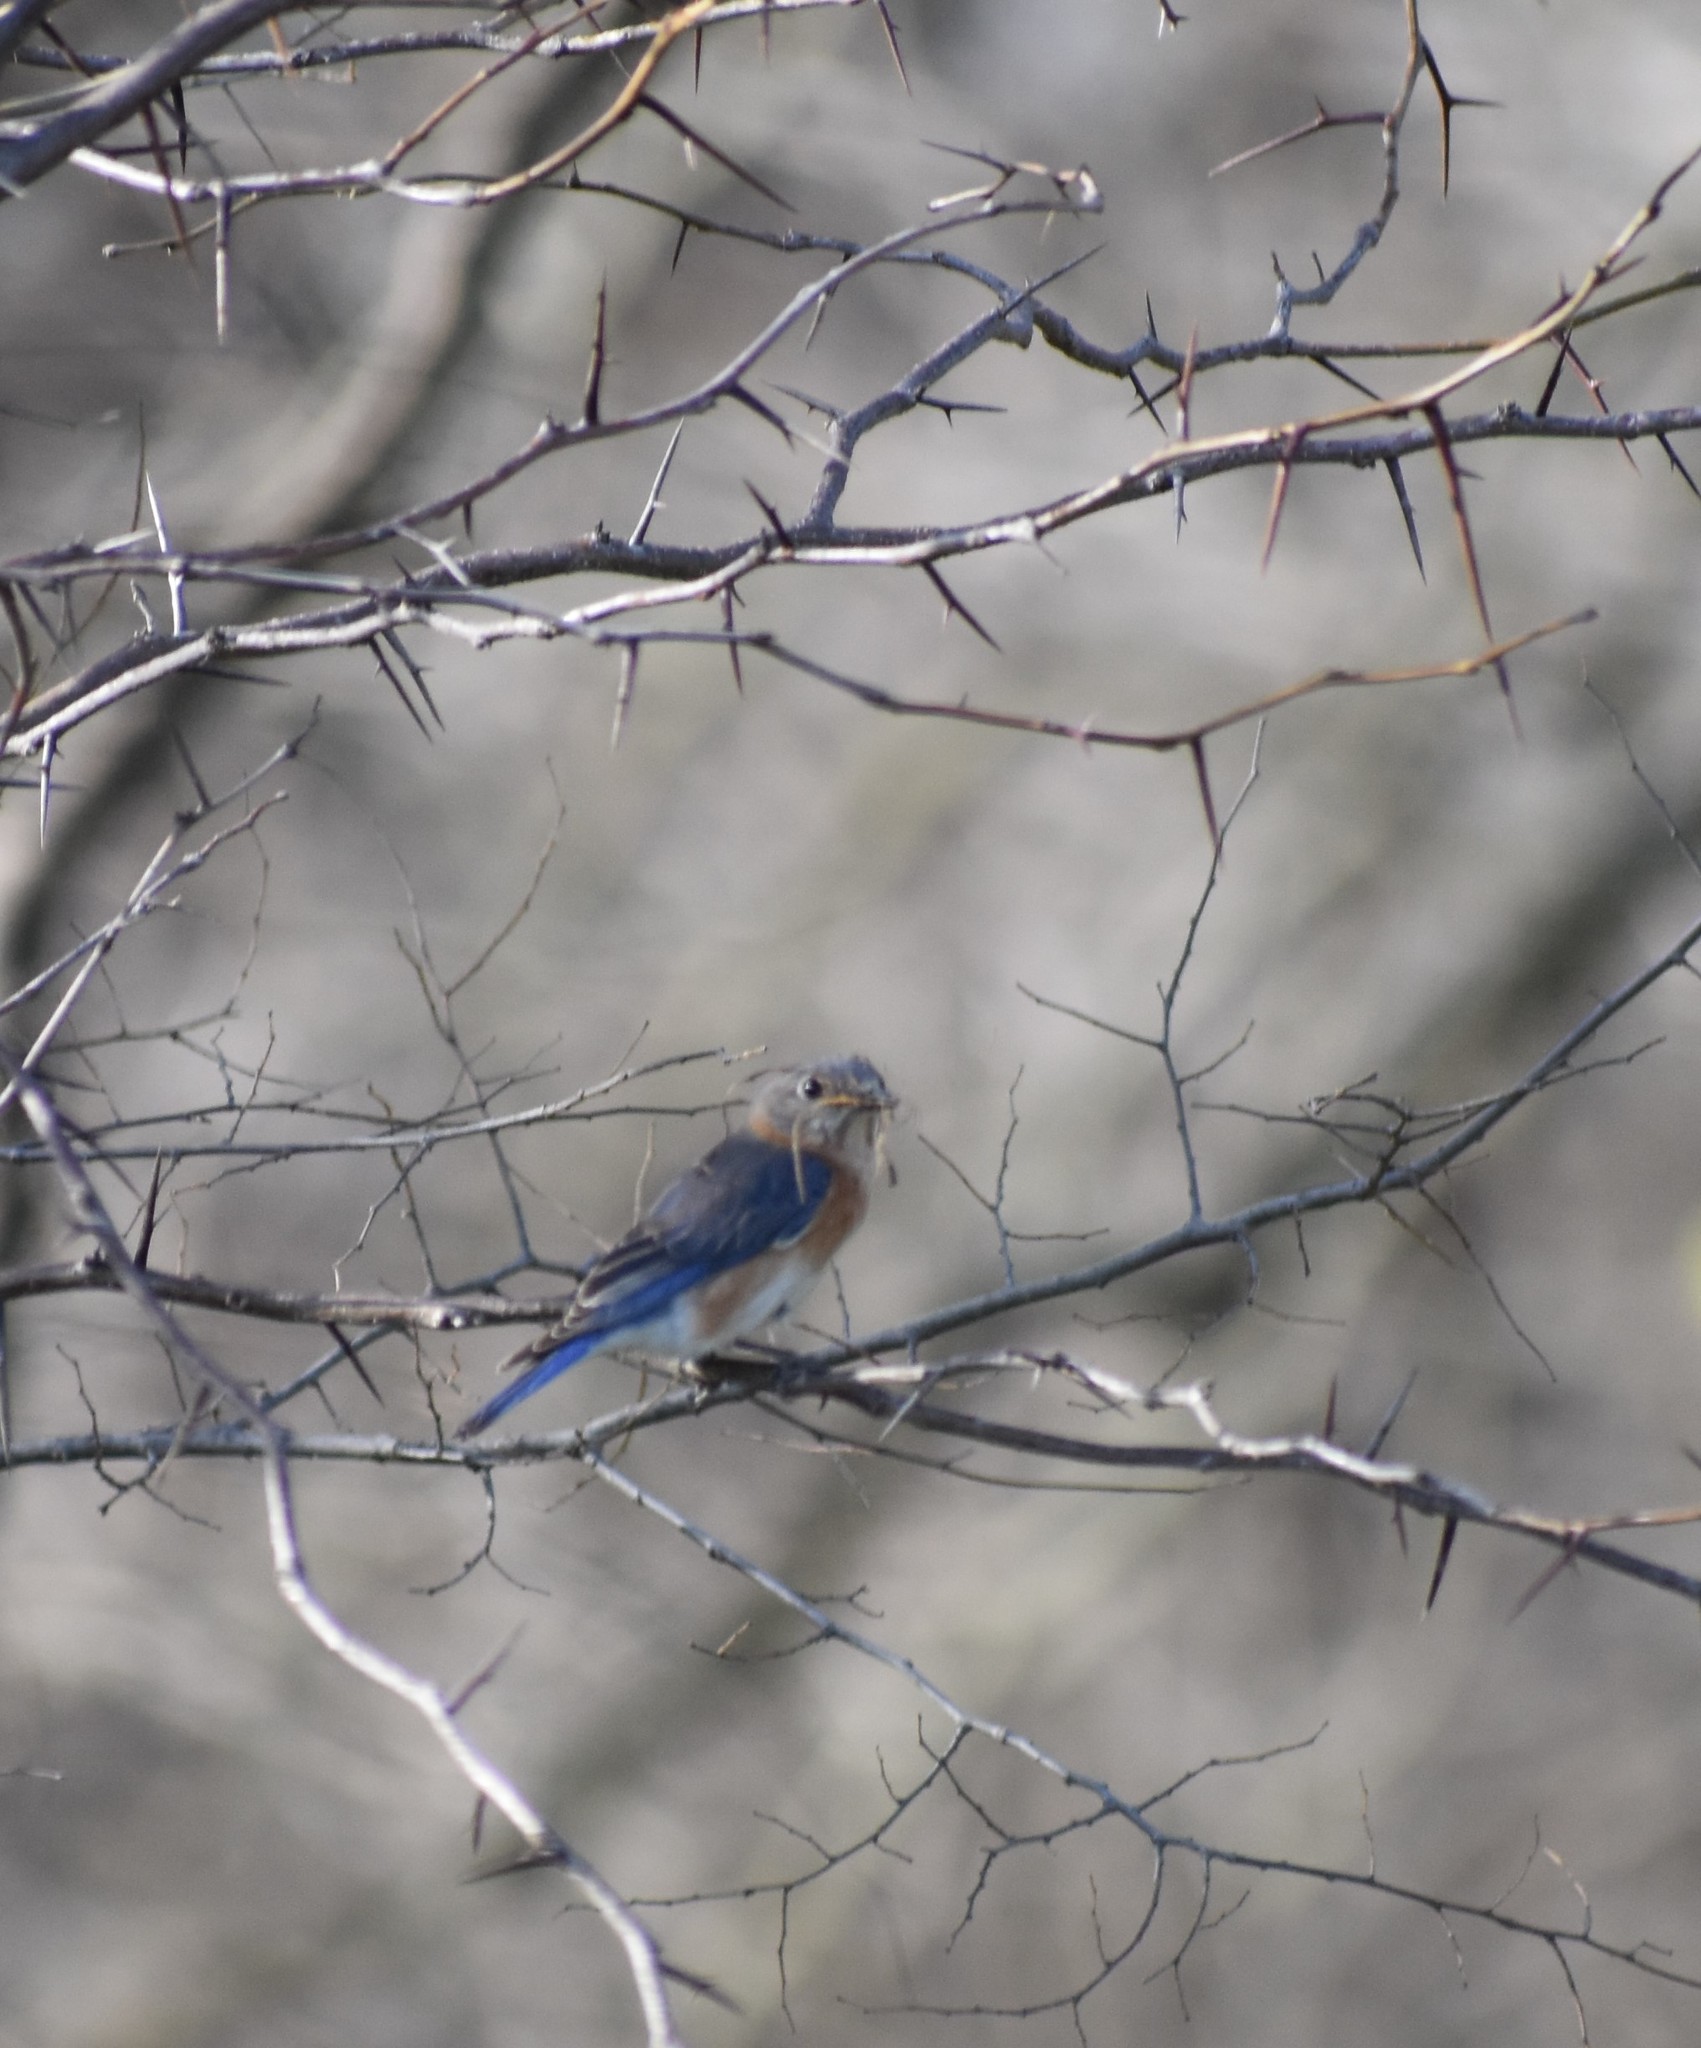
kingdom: Animalia
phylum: Chordata
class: Aves
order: Passeriformes
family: Turdidae
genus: Sialia
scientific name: Sialia sialis
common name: Eastern bluebird
